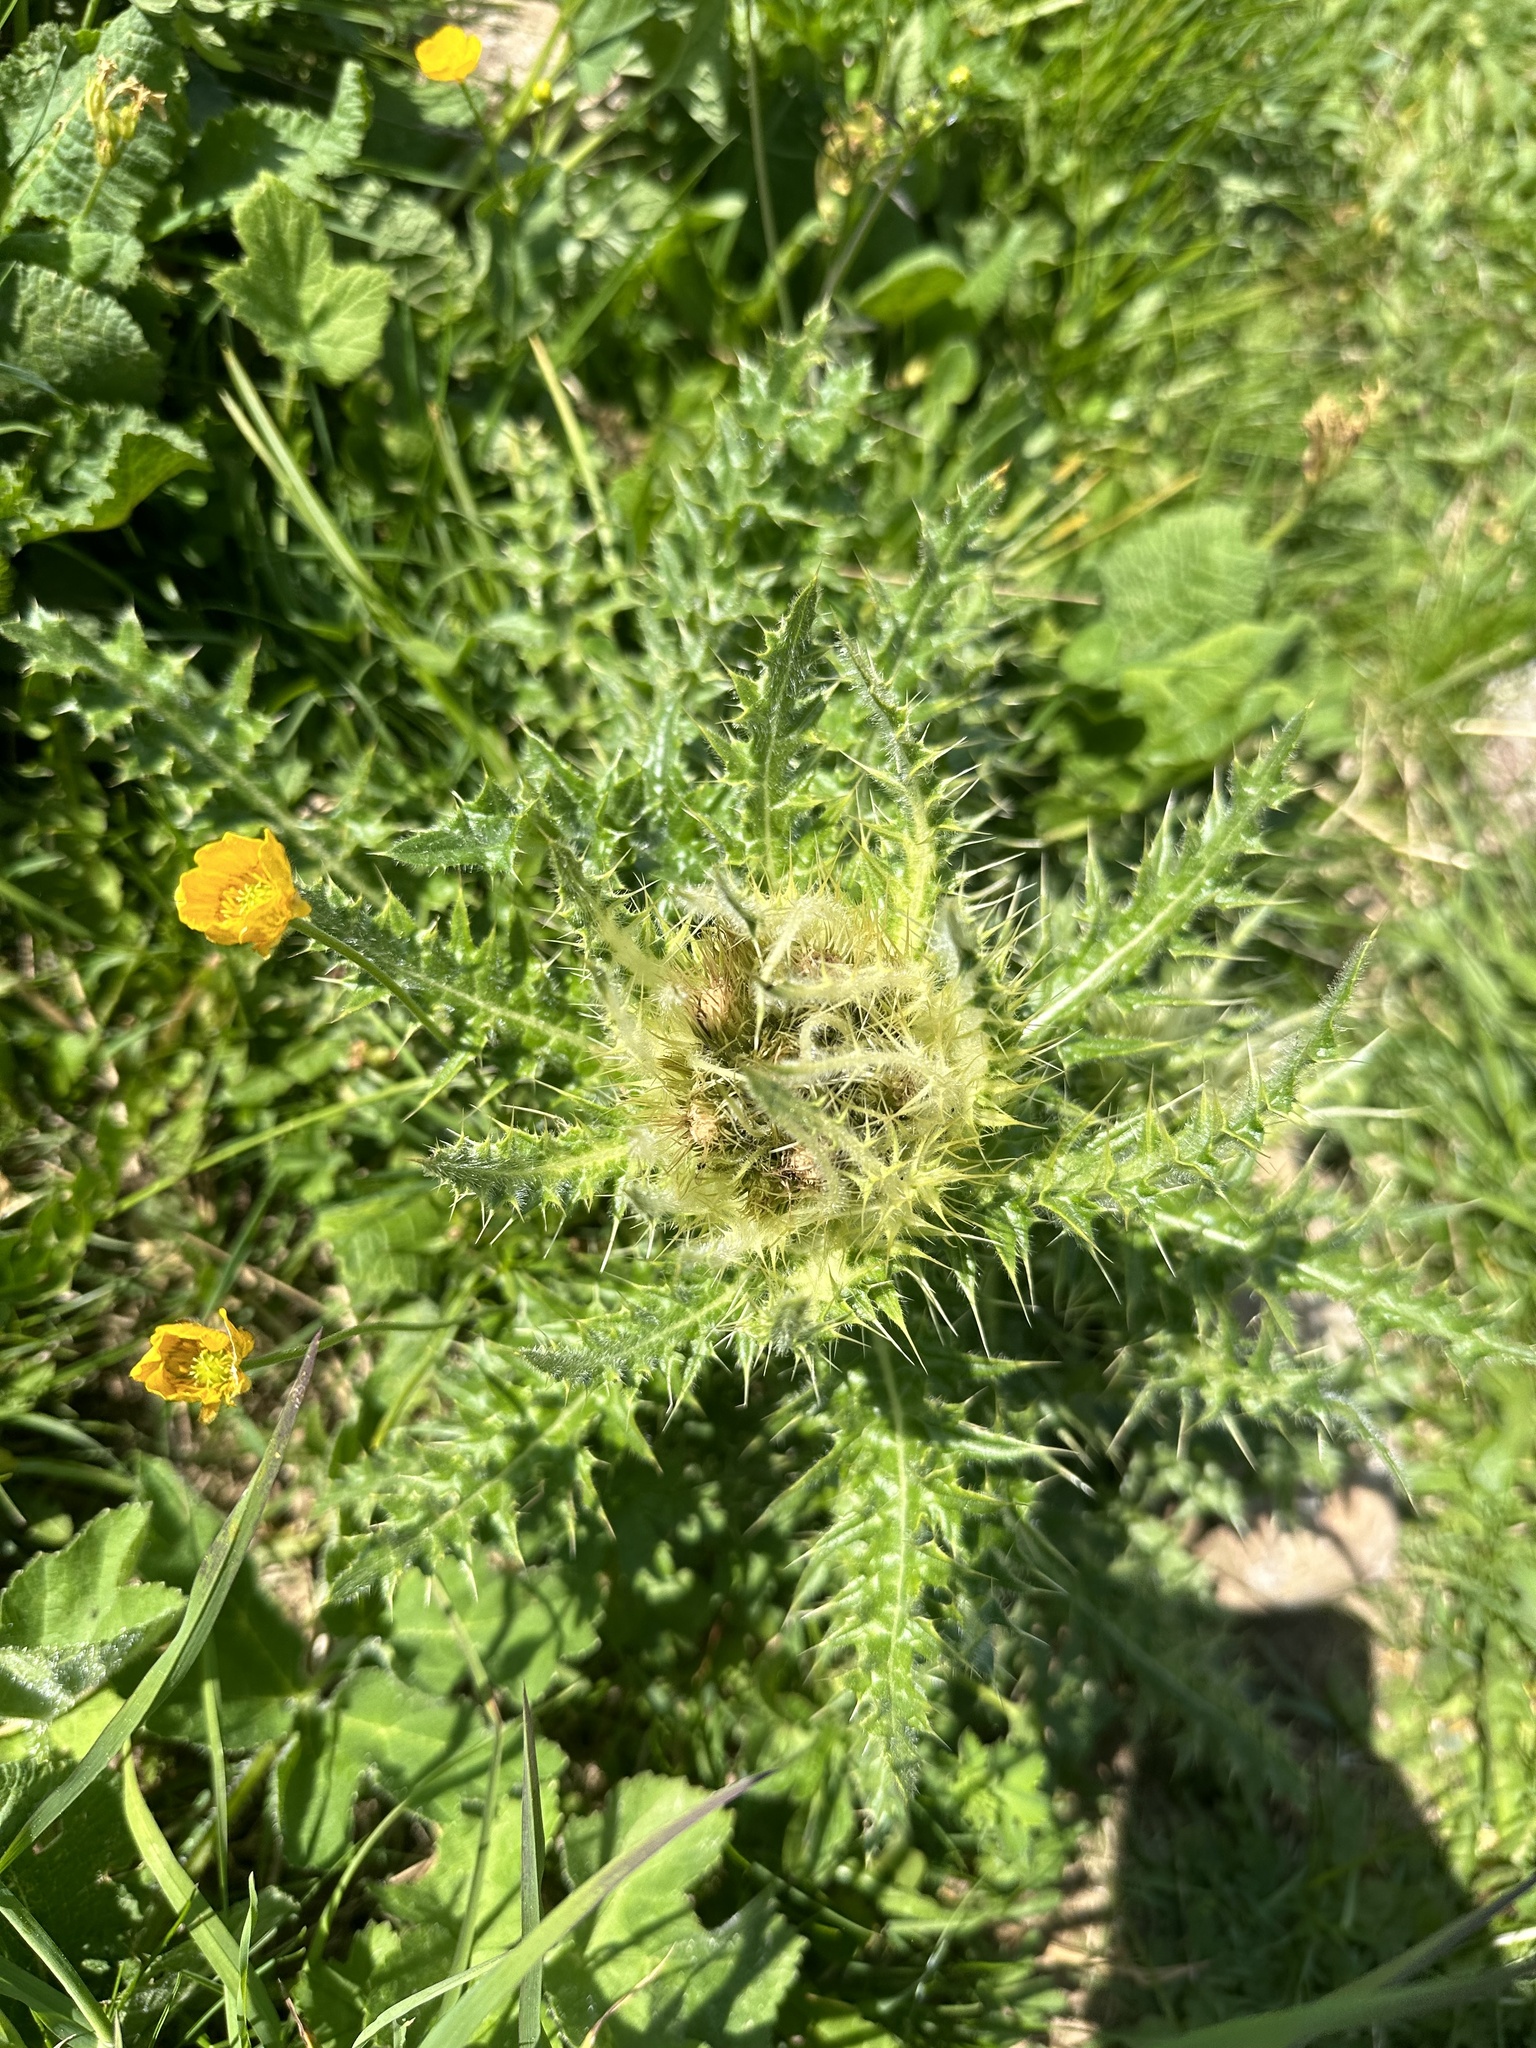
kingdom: Plantae
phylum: Tracheophyta
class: Magnoliopsida
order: Asterales
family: Asteraceae
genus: Cirsium
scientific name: Cirsium spinosissimum
